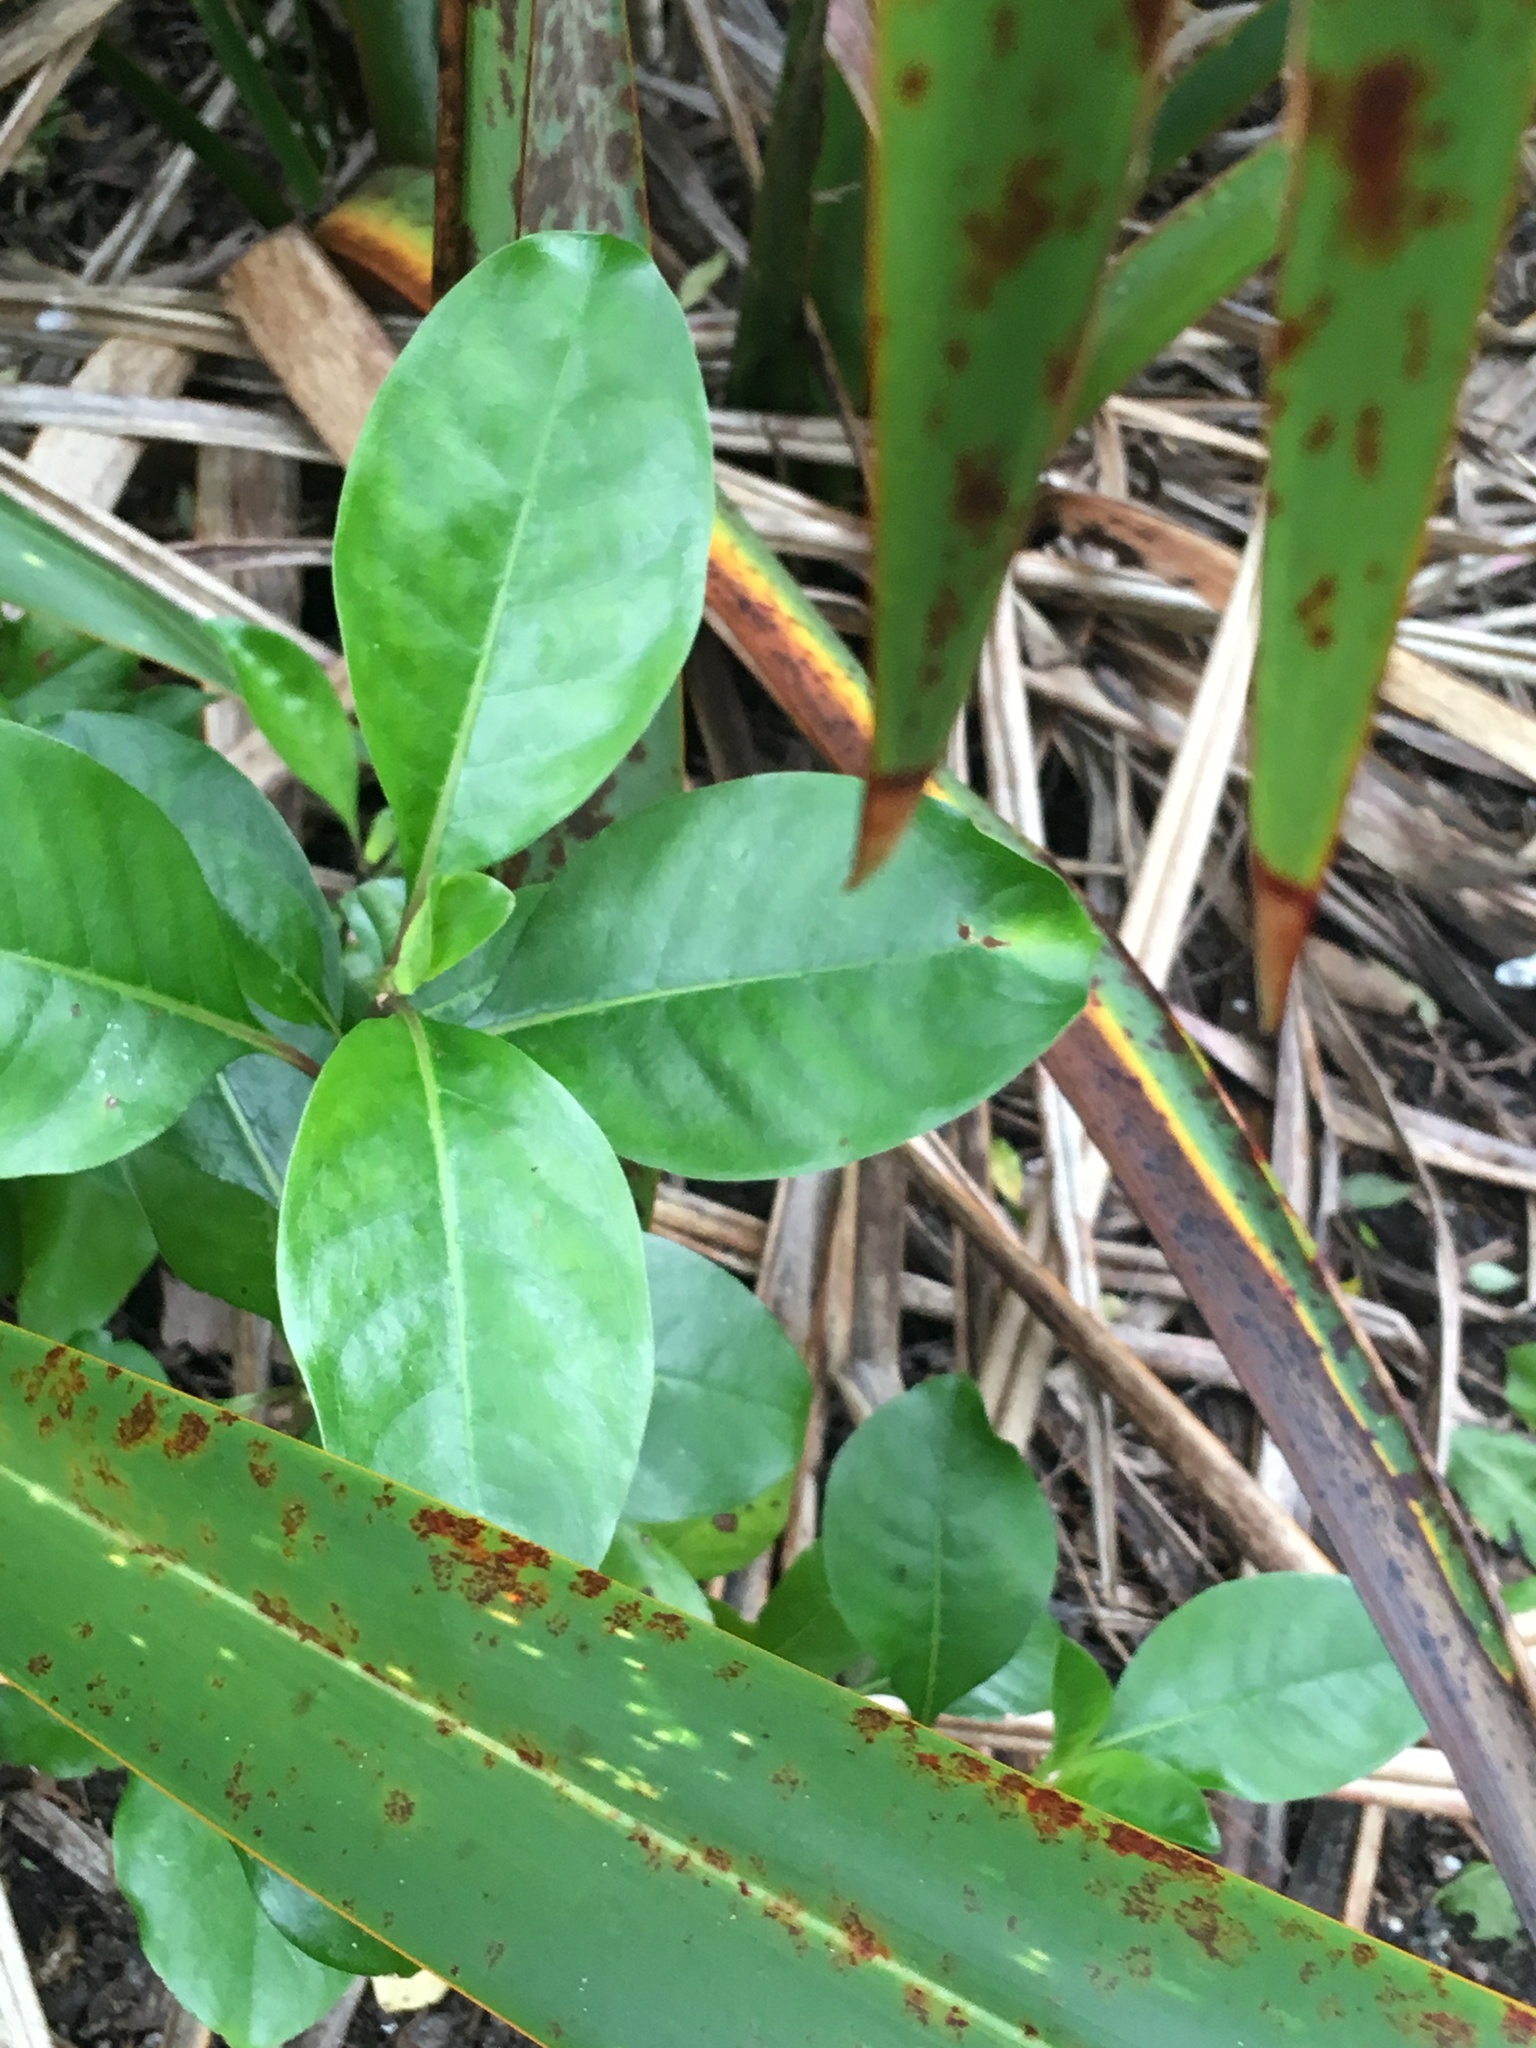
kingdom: Plantae
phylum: Tracheophyta
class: Magnoliopsida
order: Gentianales
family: Rubiaceae
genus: Coprosma
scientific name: Coprosma macrocarpa
